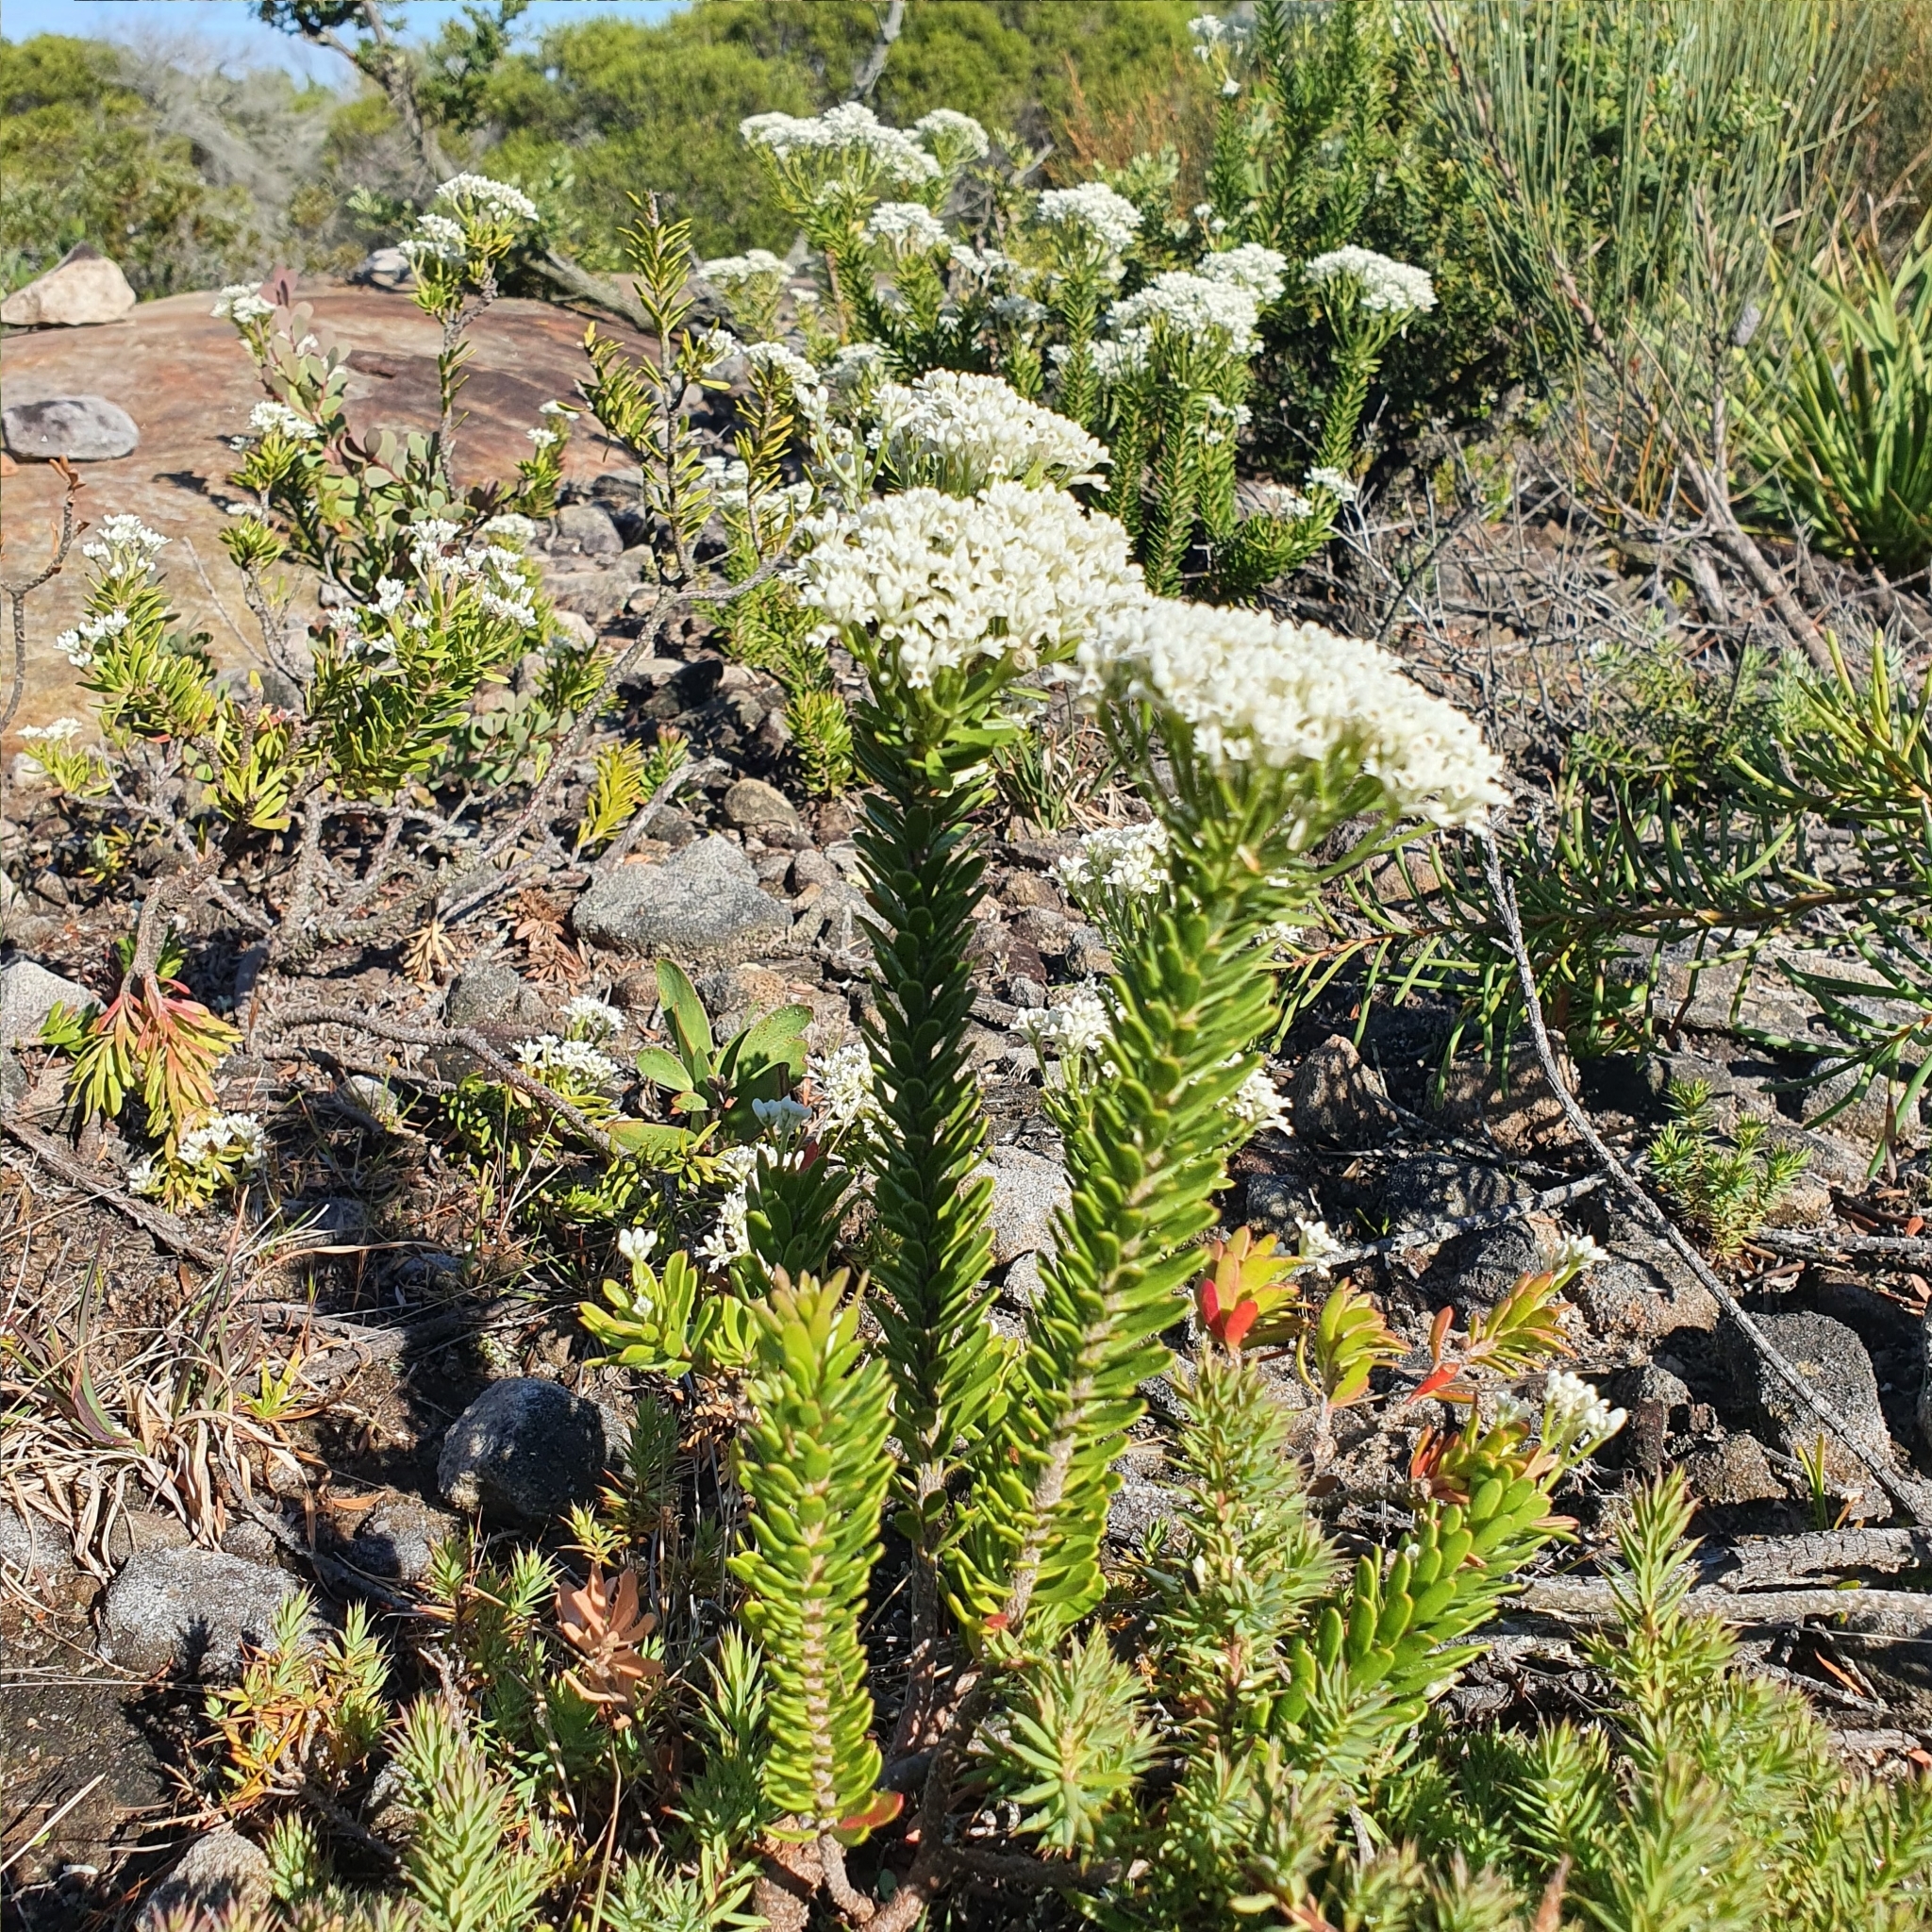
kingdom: Plantae
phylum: Tracheophyta
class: Magnoliopsida
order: Proteales
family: Proteaceae
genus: Conospermum
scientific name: Conospermum ellipticum
